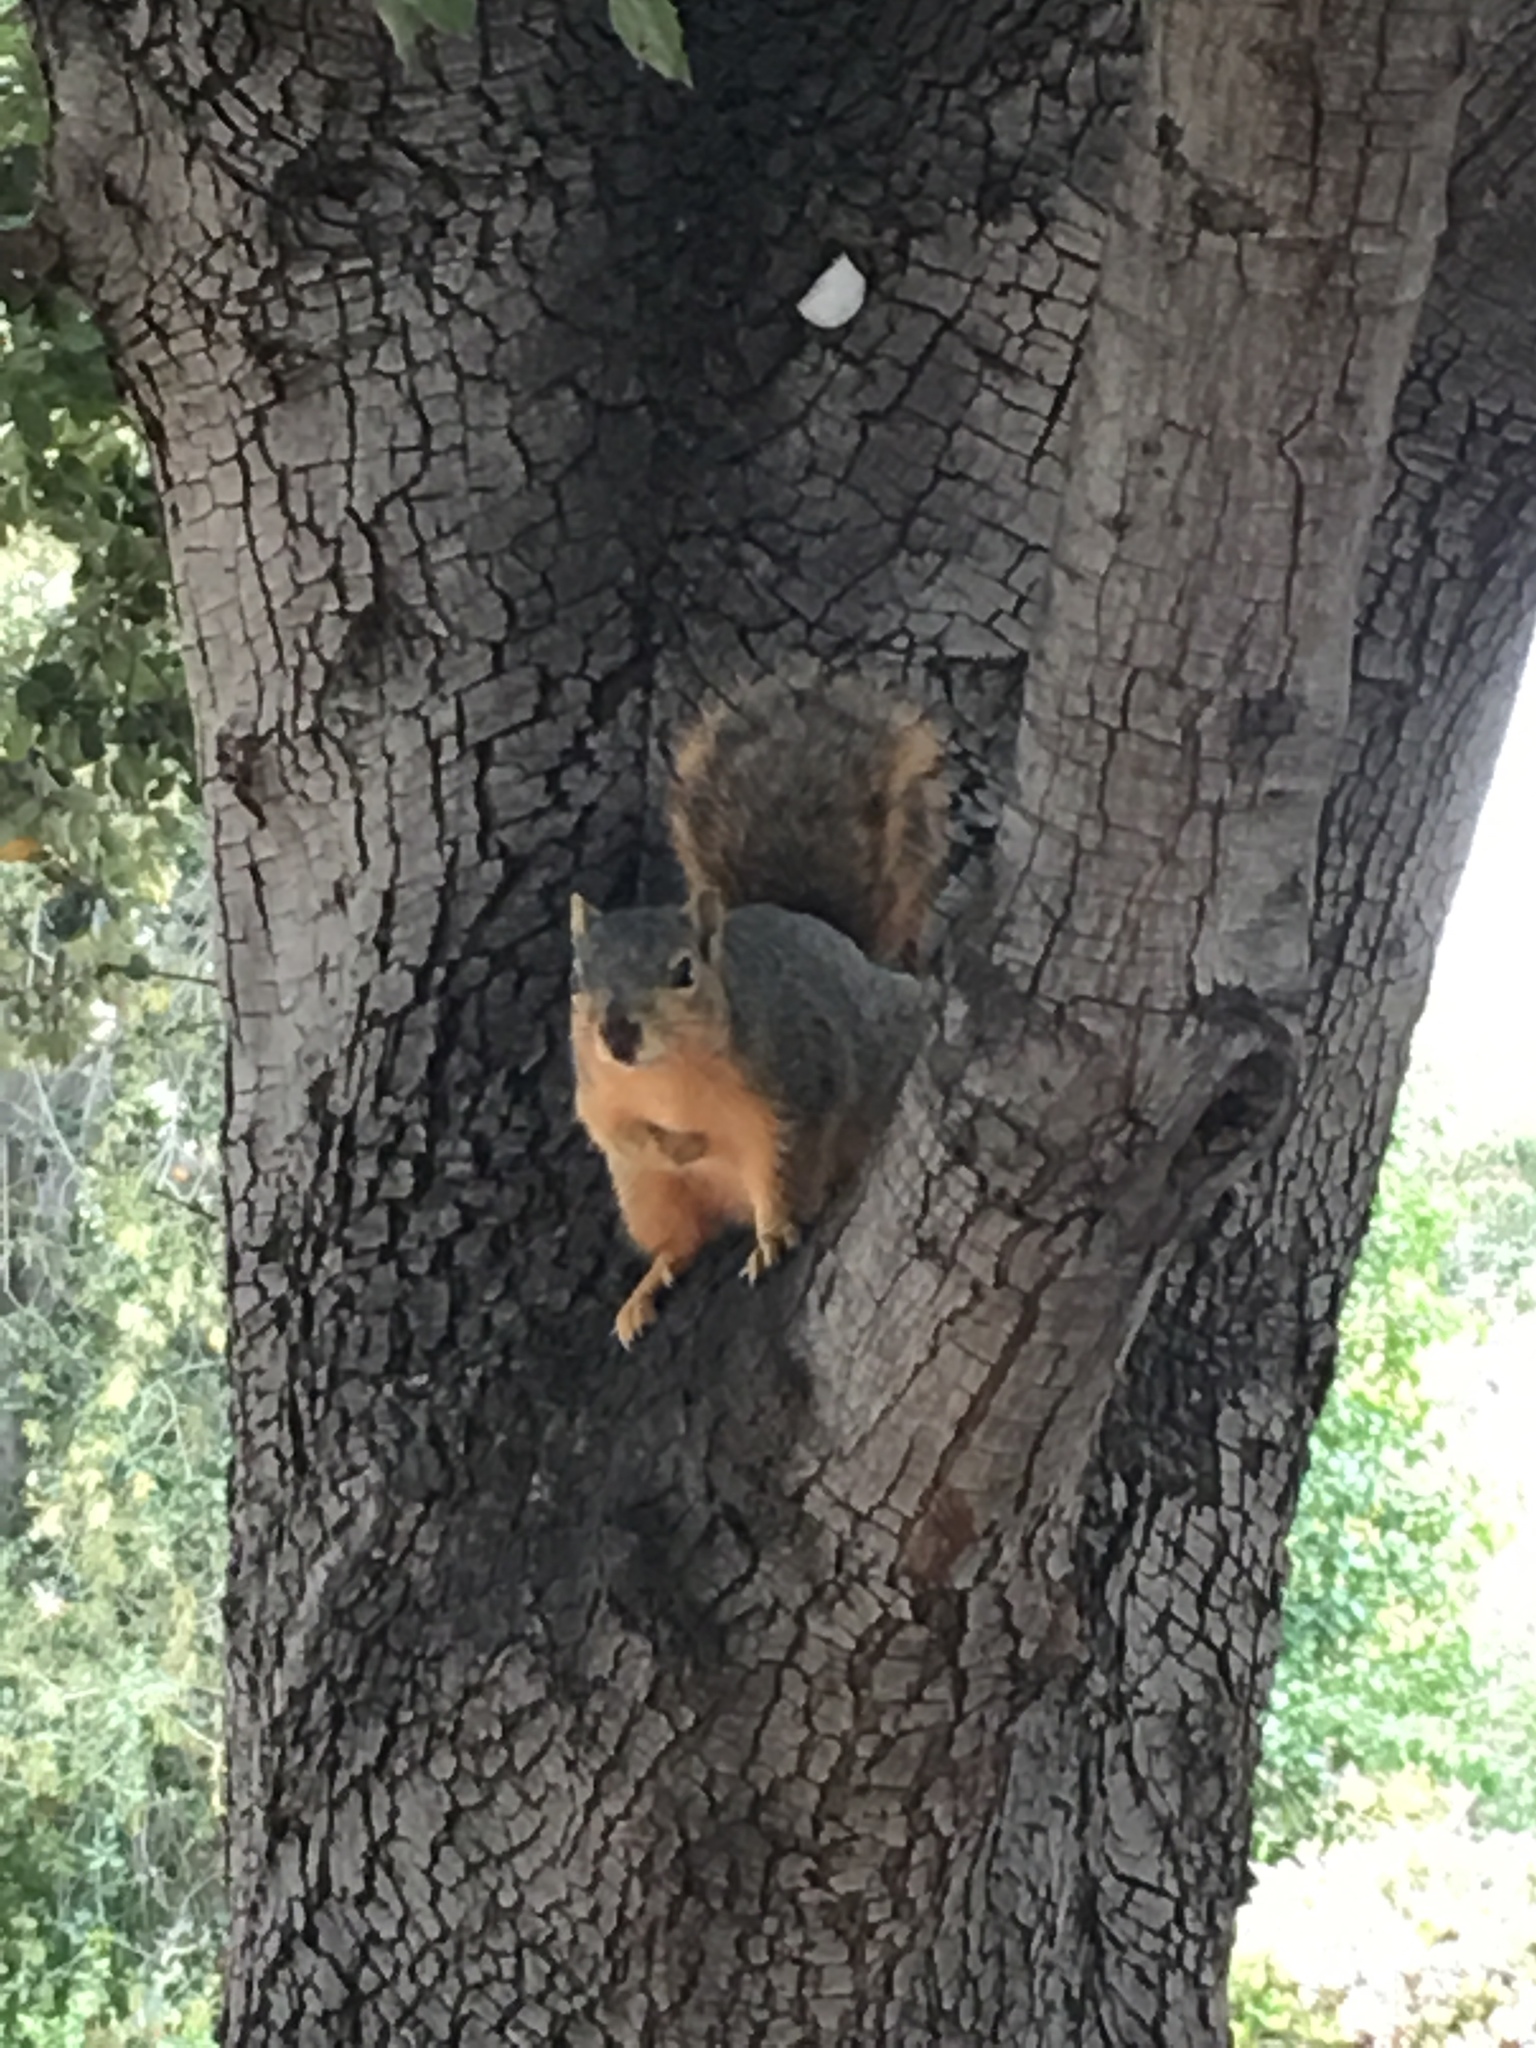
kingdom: Animalia
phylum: Chordata
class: Mammalia
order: Rodentia
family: Sciuridae
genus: Sciurus
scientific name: Sciurus niger
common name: Fox squirrel
